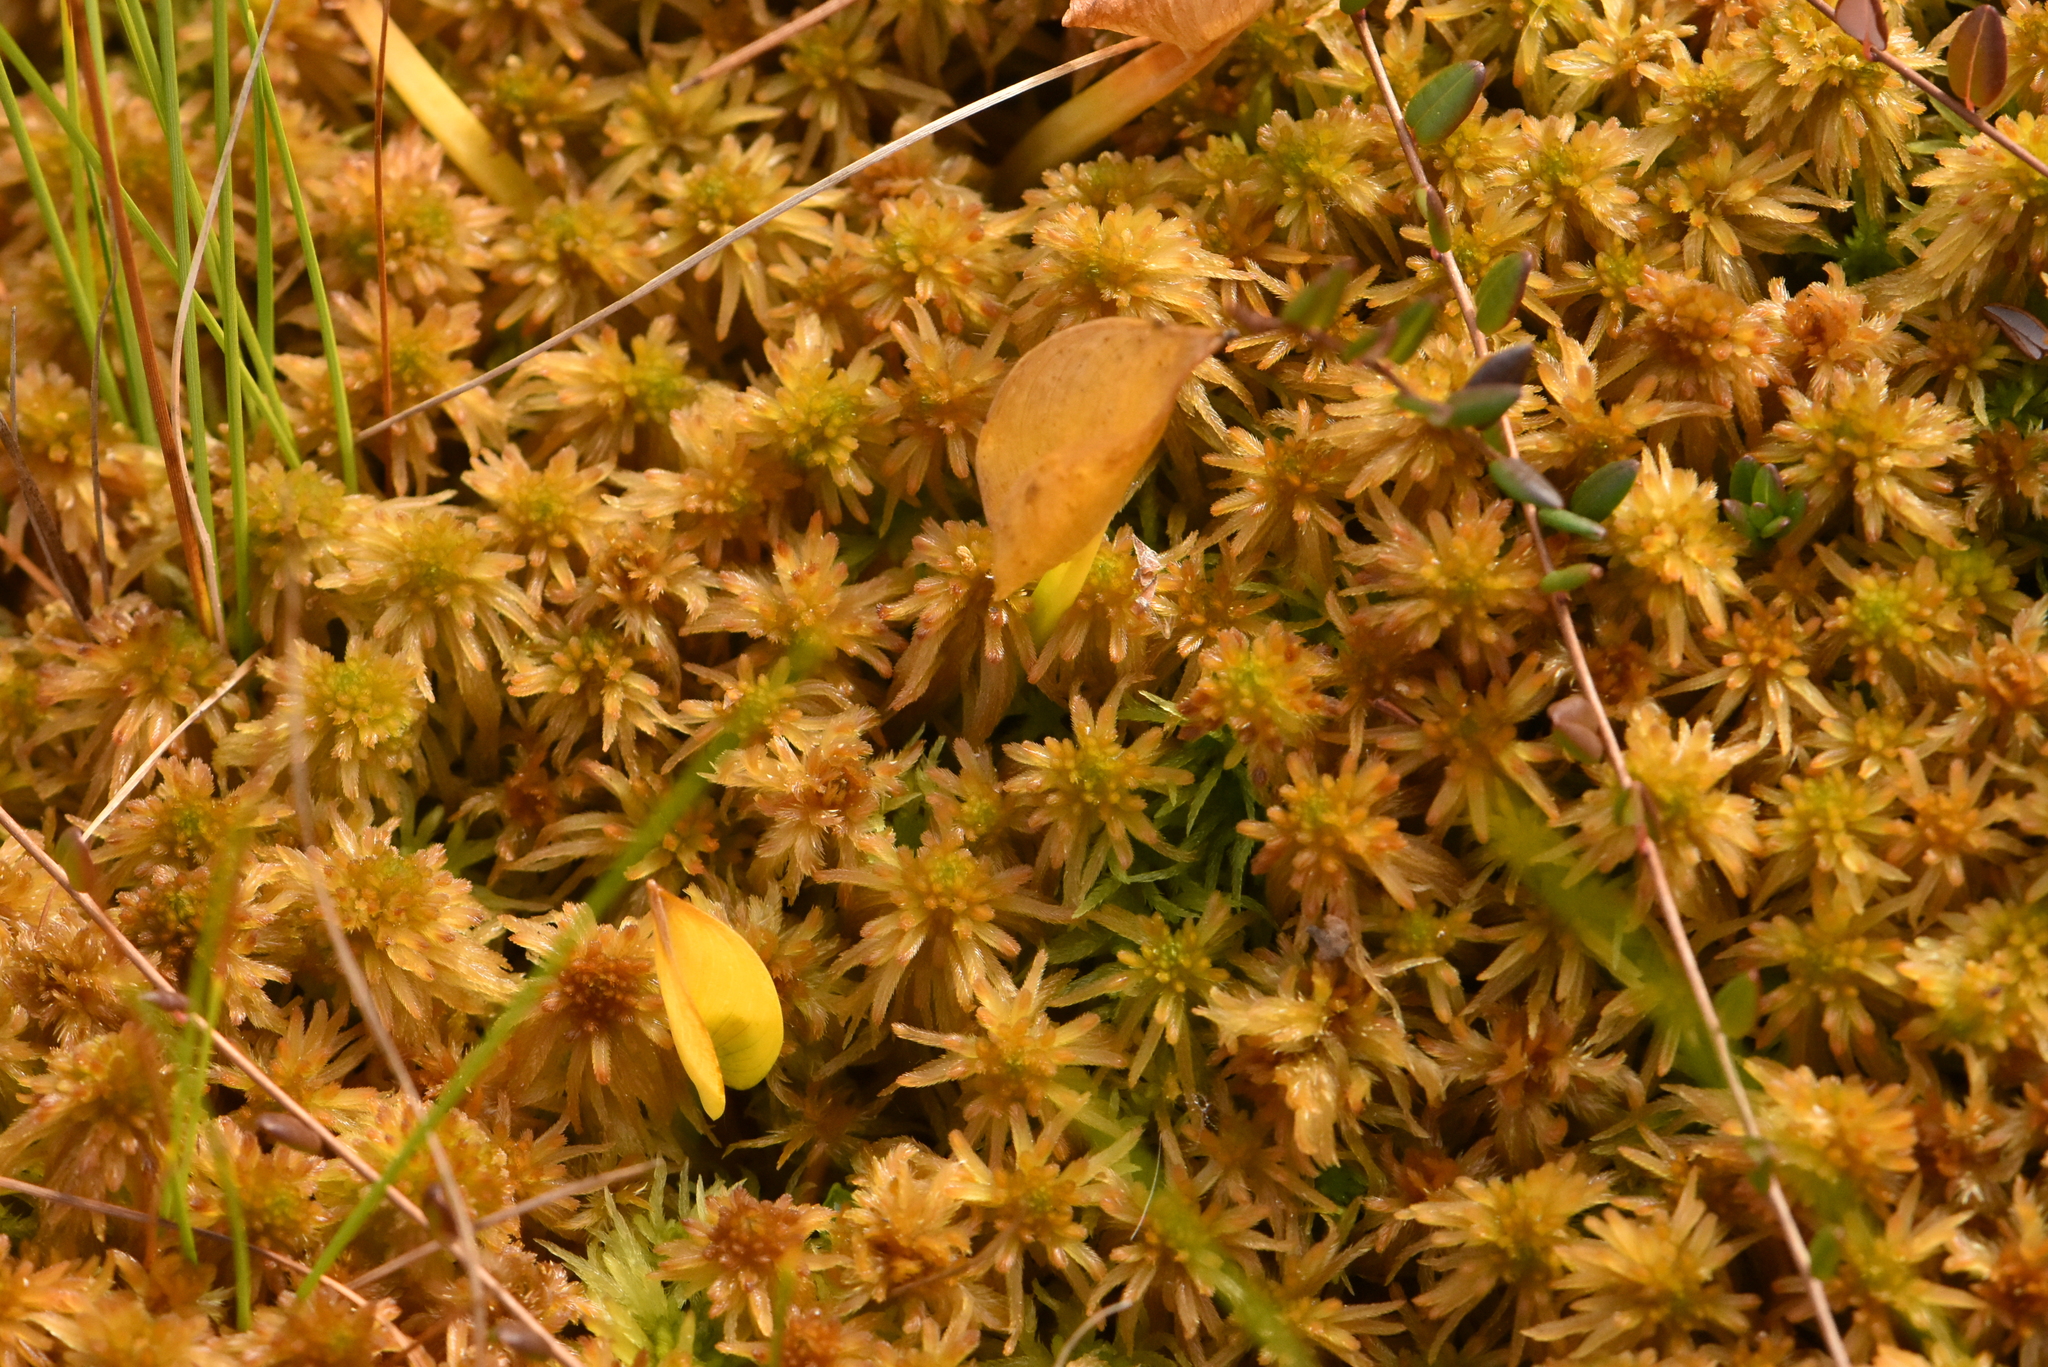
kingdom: Plantae
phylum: Tracheophyta
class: Liliopsida
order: Alismatales
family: Araceae
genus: Calla
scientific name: Calla palustris
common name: Bog arum
